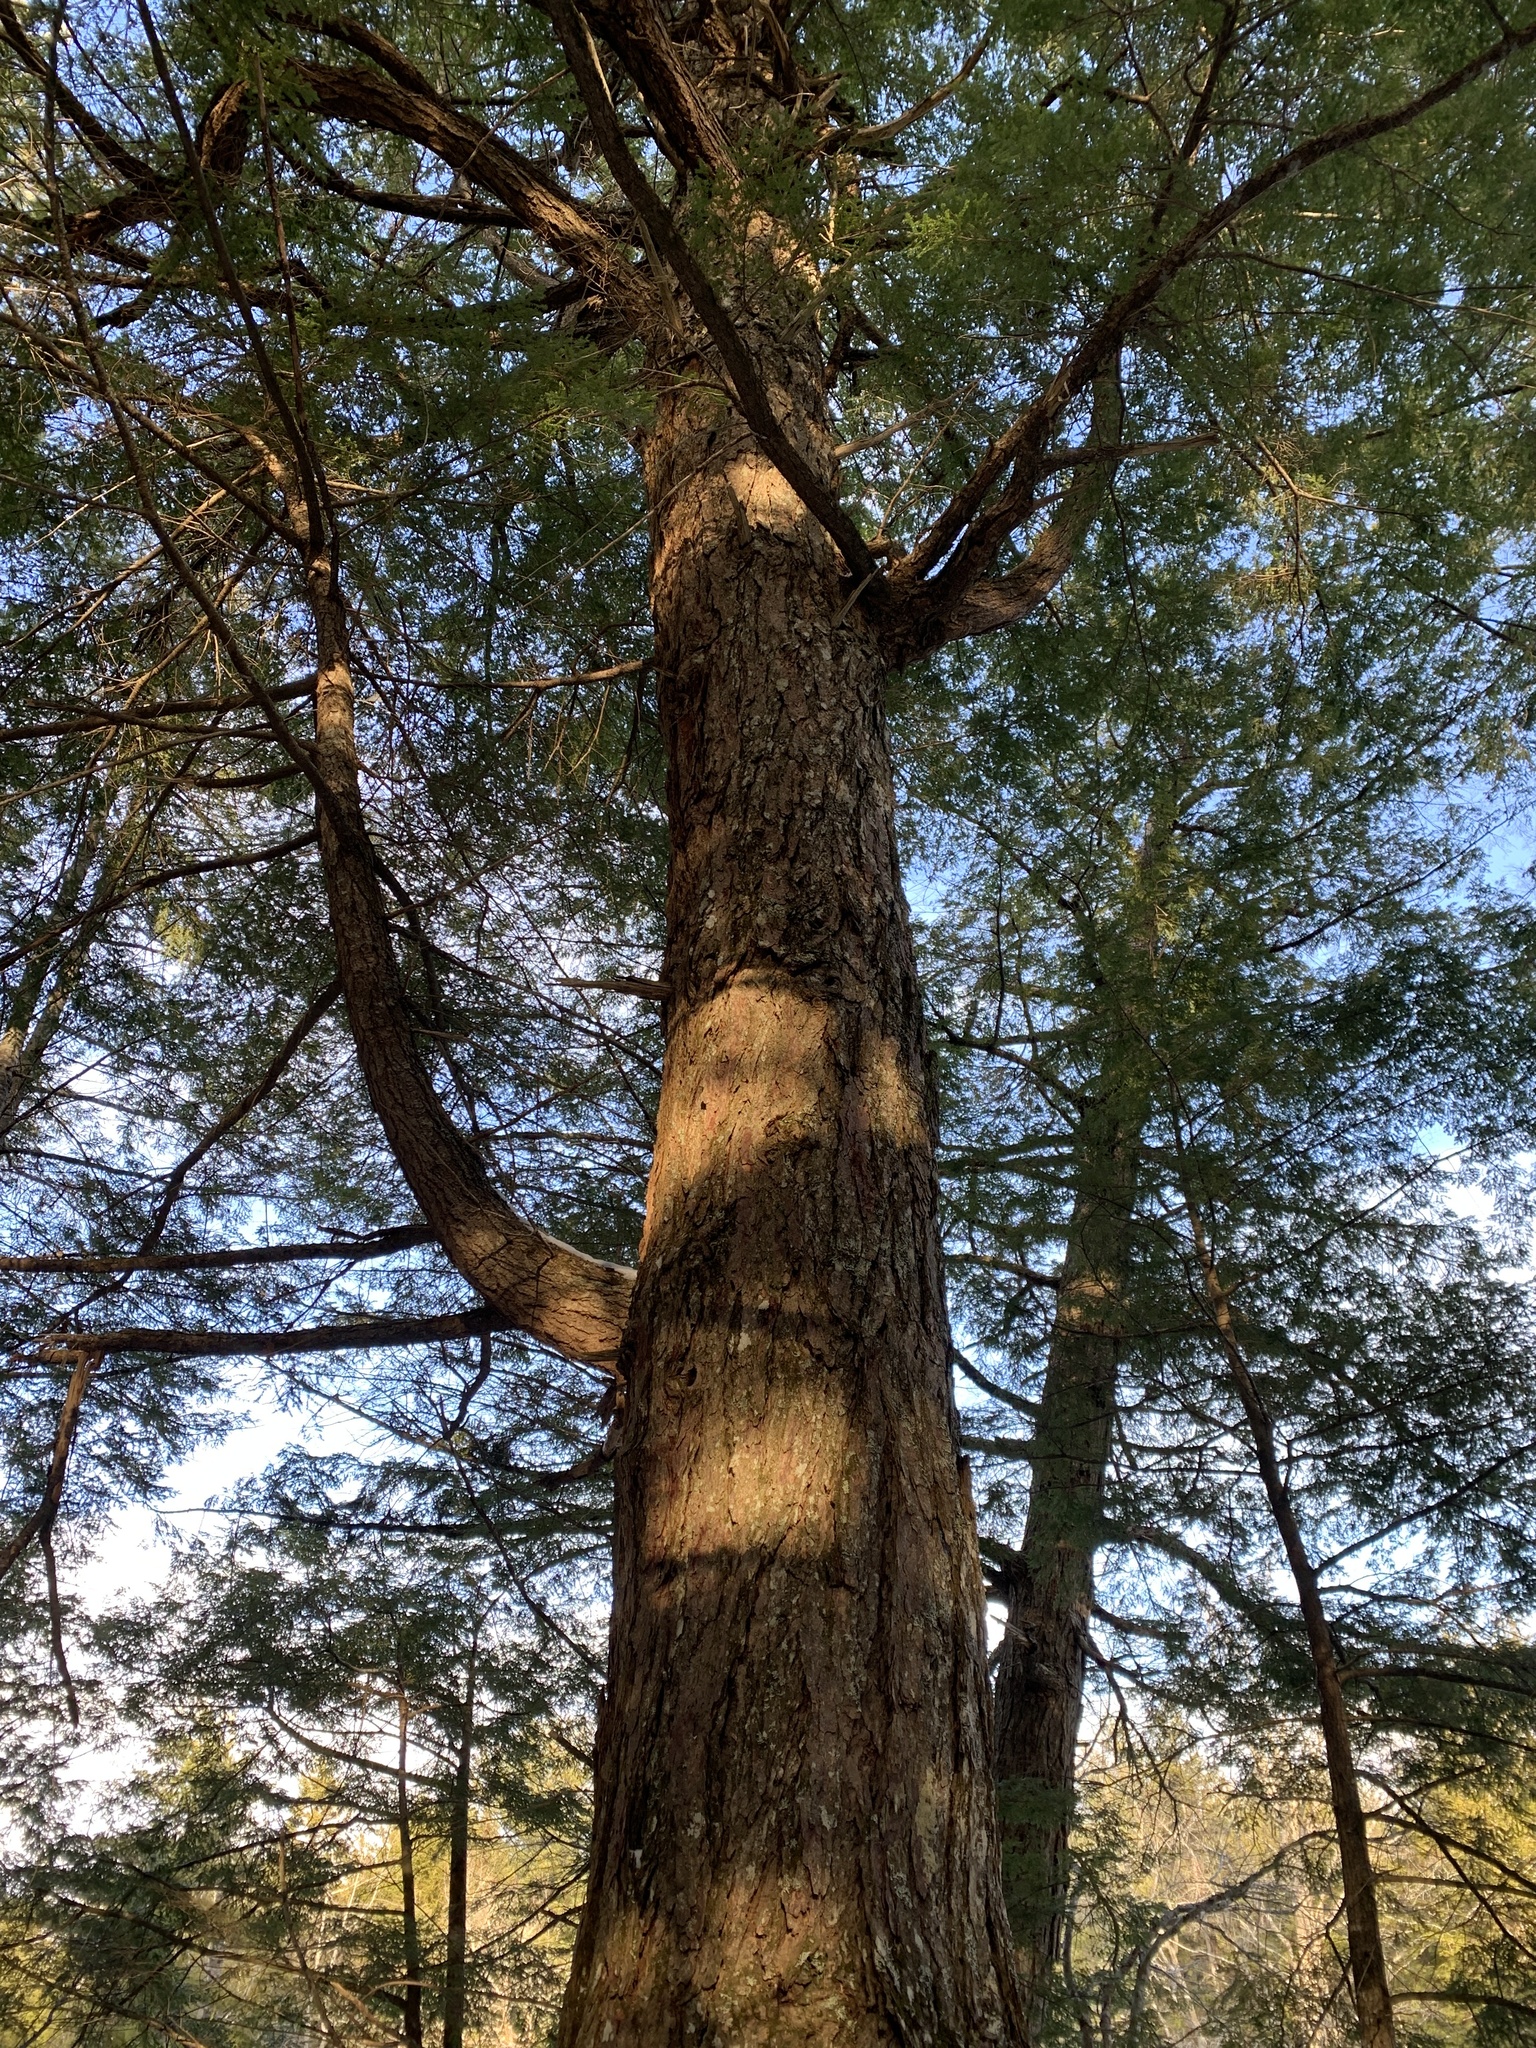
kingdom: Plantae
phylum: Tracheophyta
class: Pinopsida
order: Pinales
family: Pinaceae
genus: Tsuga
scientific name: Tsuga canadensis
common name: Eastern hemlock
